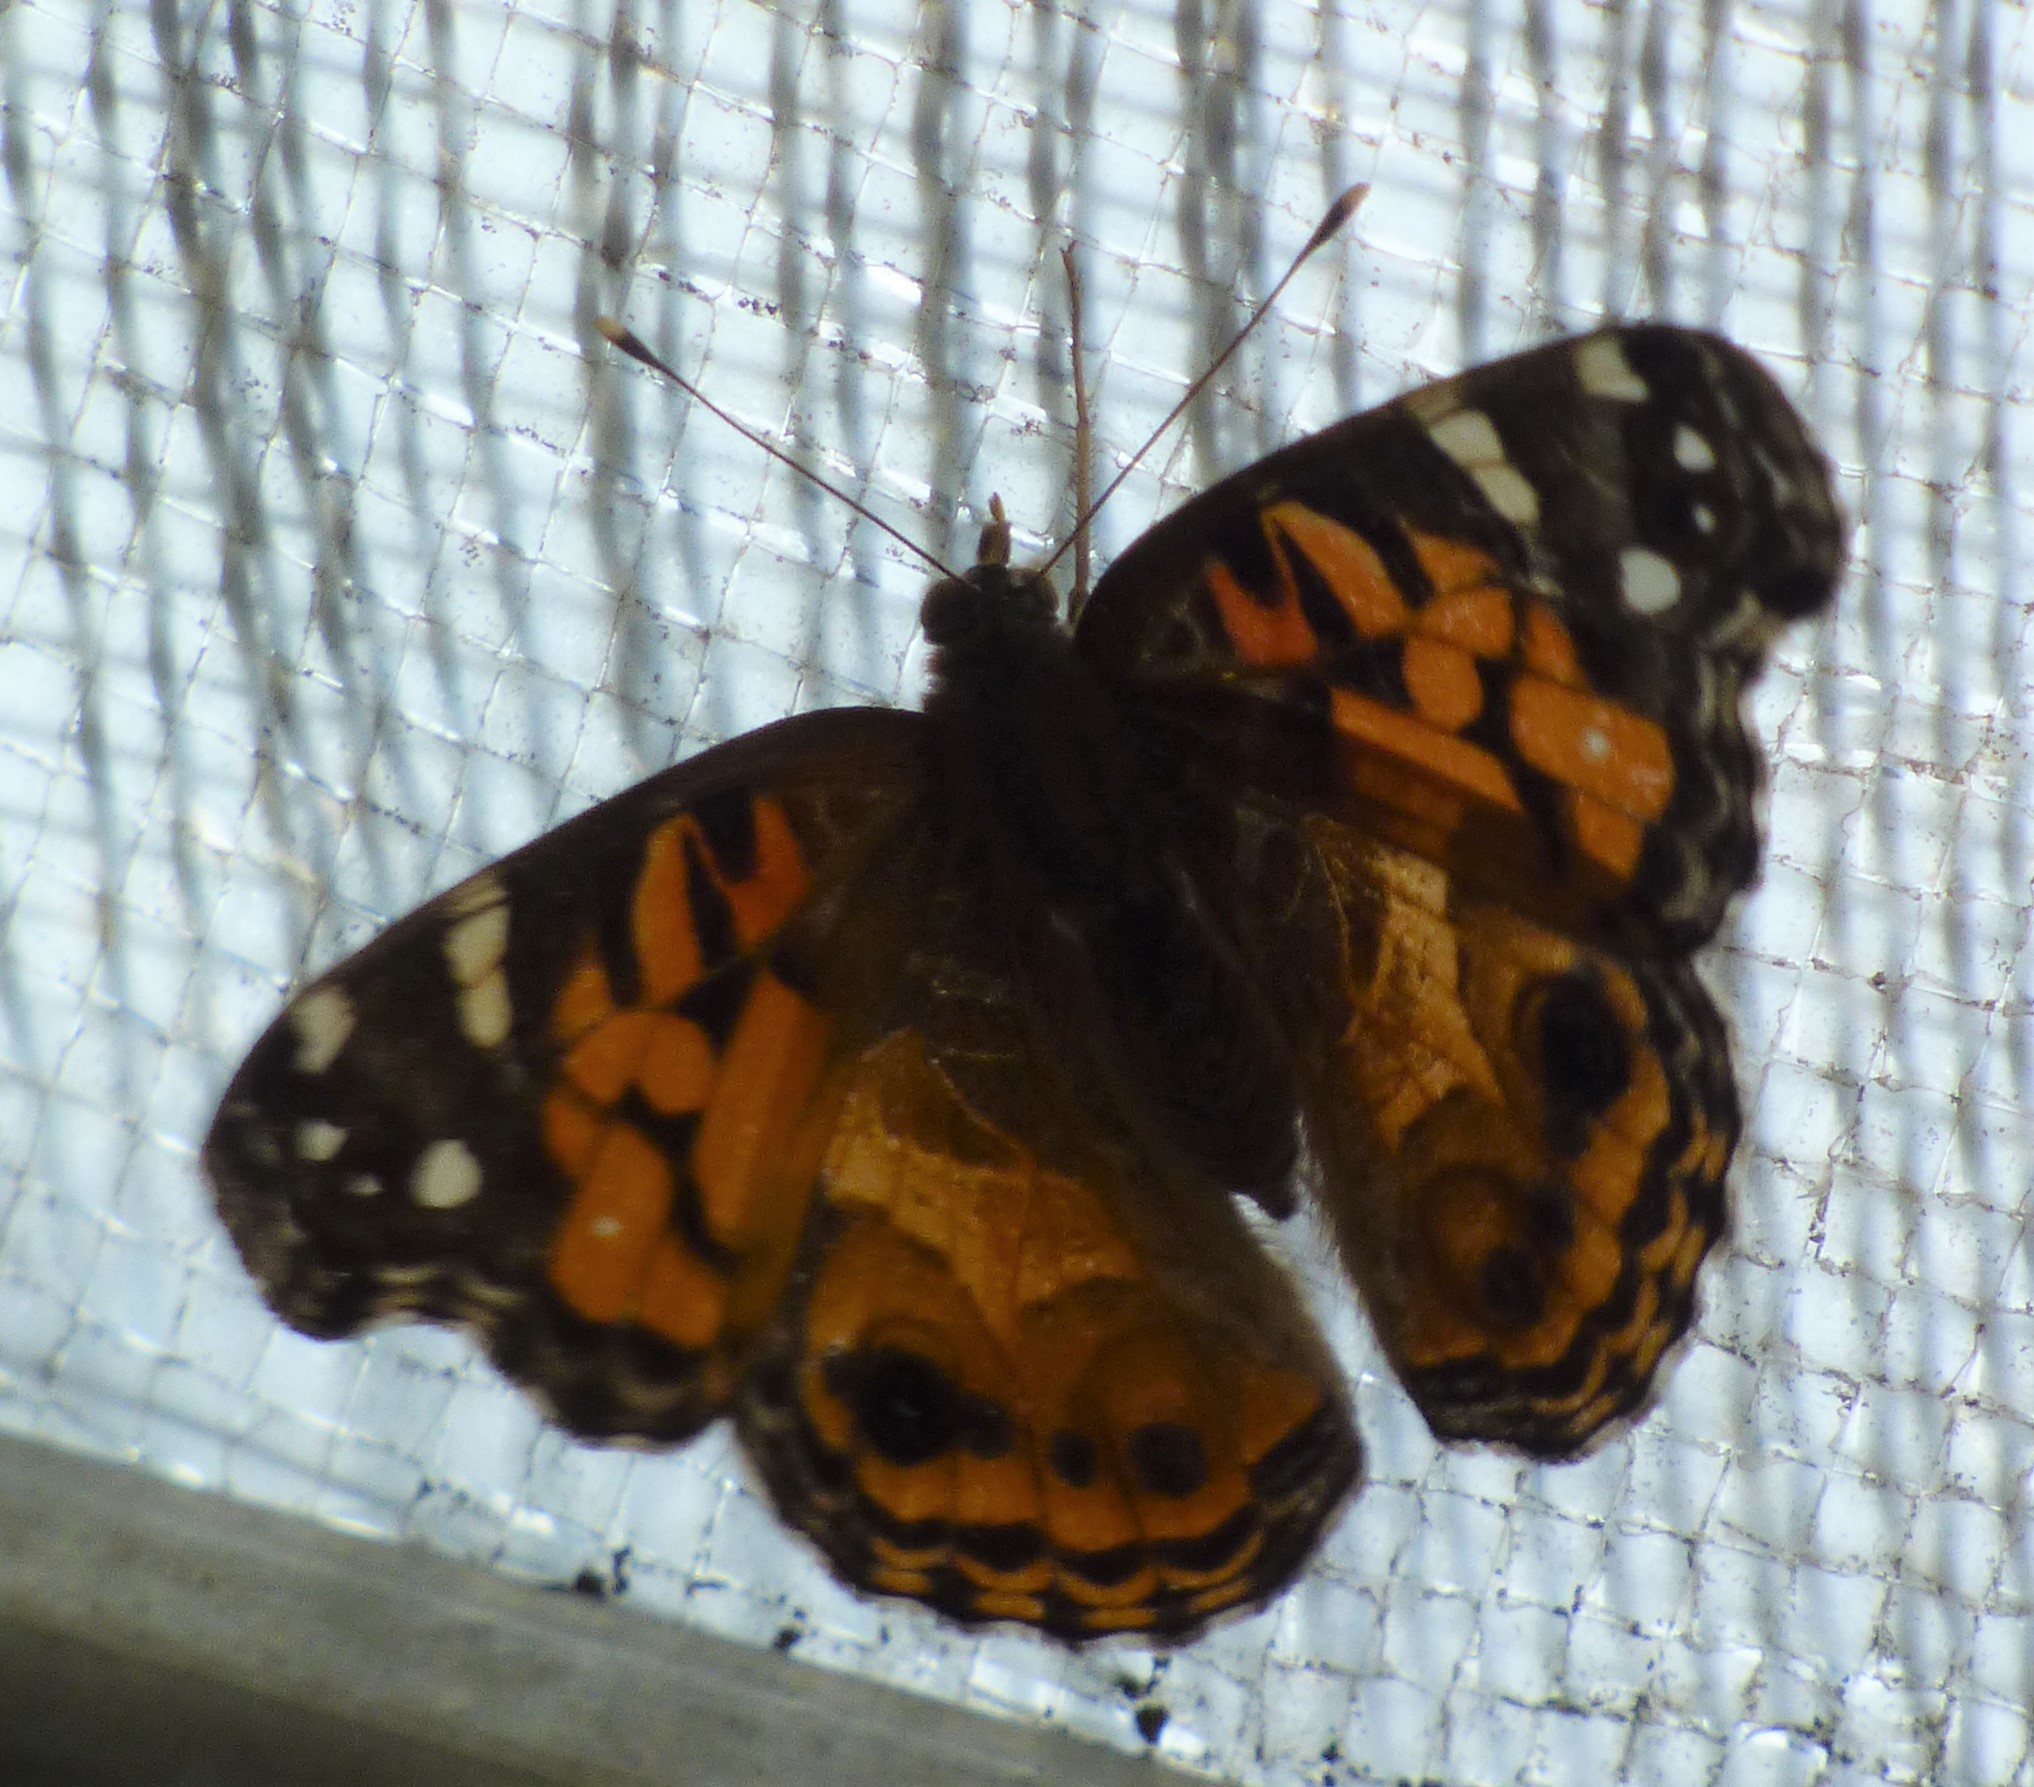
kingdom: Animalia
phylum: Arthropoda
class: Insecta
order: Lepidoptera
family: Nymphalidae
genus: Vanessa
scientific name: Vanessa virginiensis
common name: American lady
